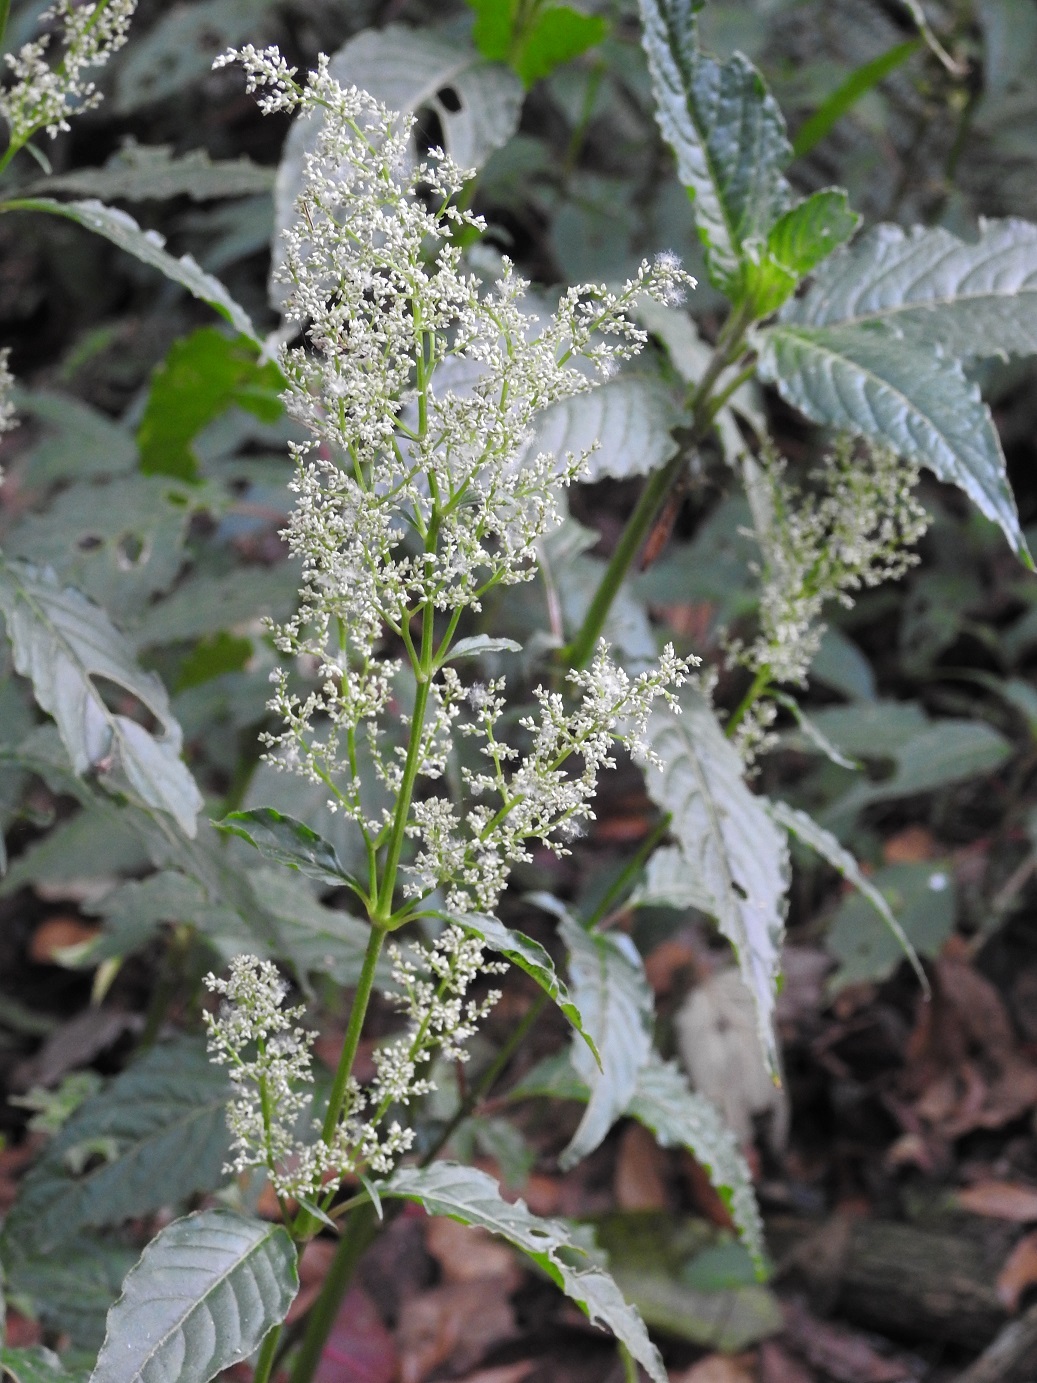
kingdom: Plantae
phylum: Tracheophyta
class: Magnoliopsida
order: Caryophyllales
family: Amaranthaceae
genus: Iresine
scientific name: Iresine diffusa
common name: Juba's-bush
